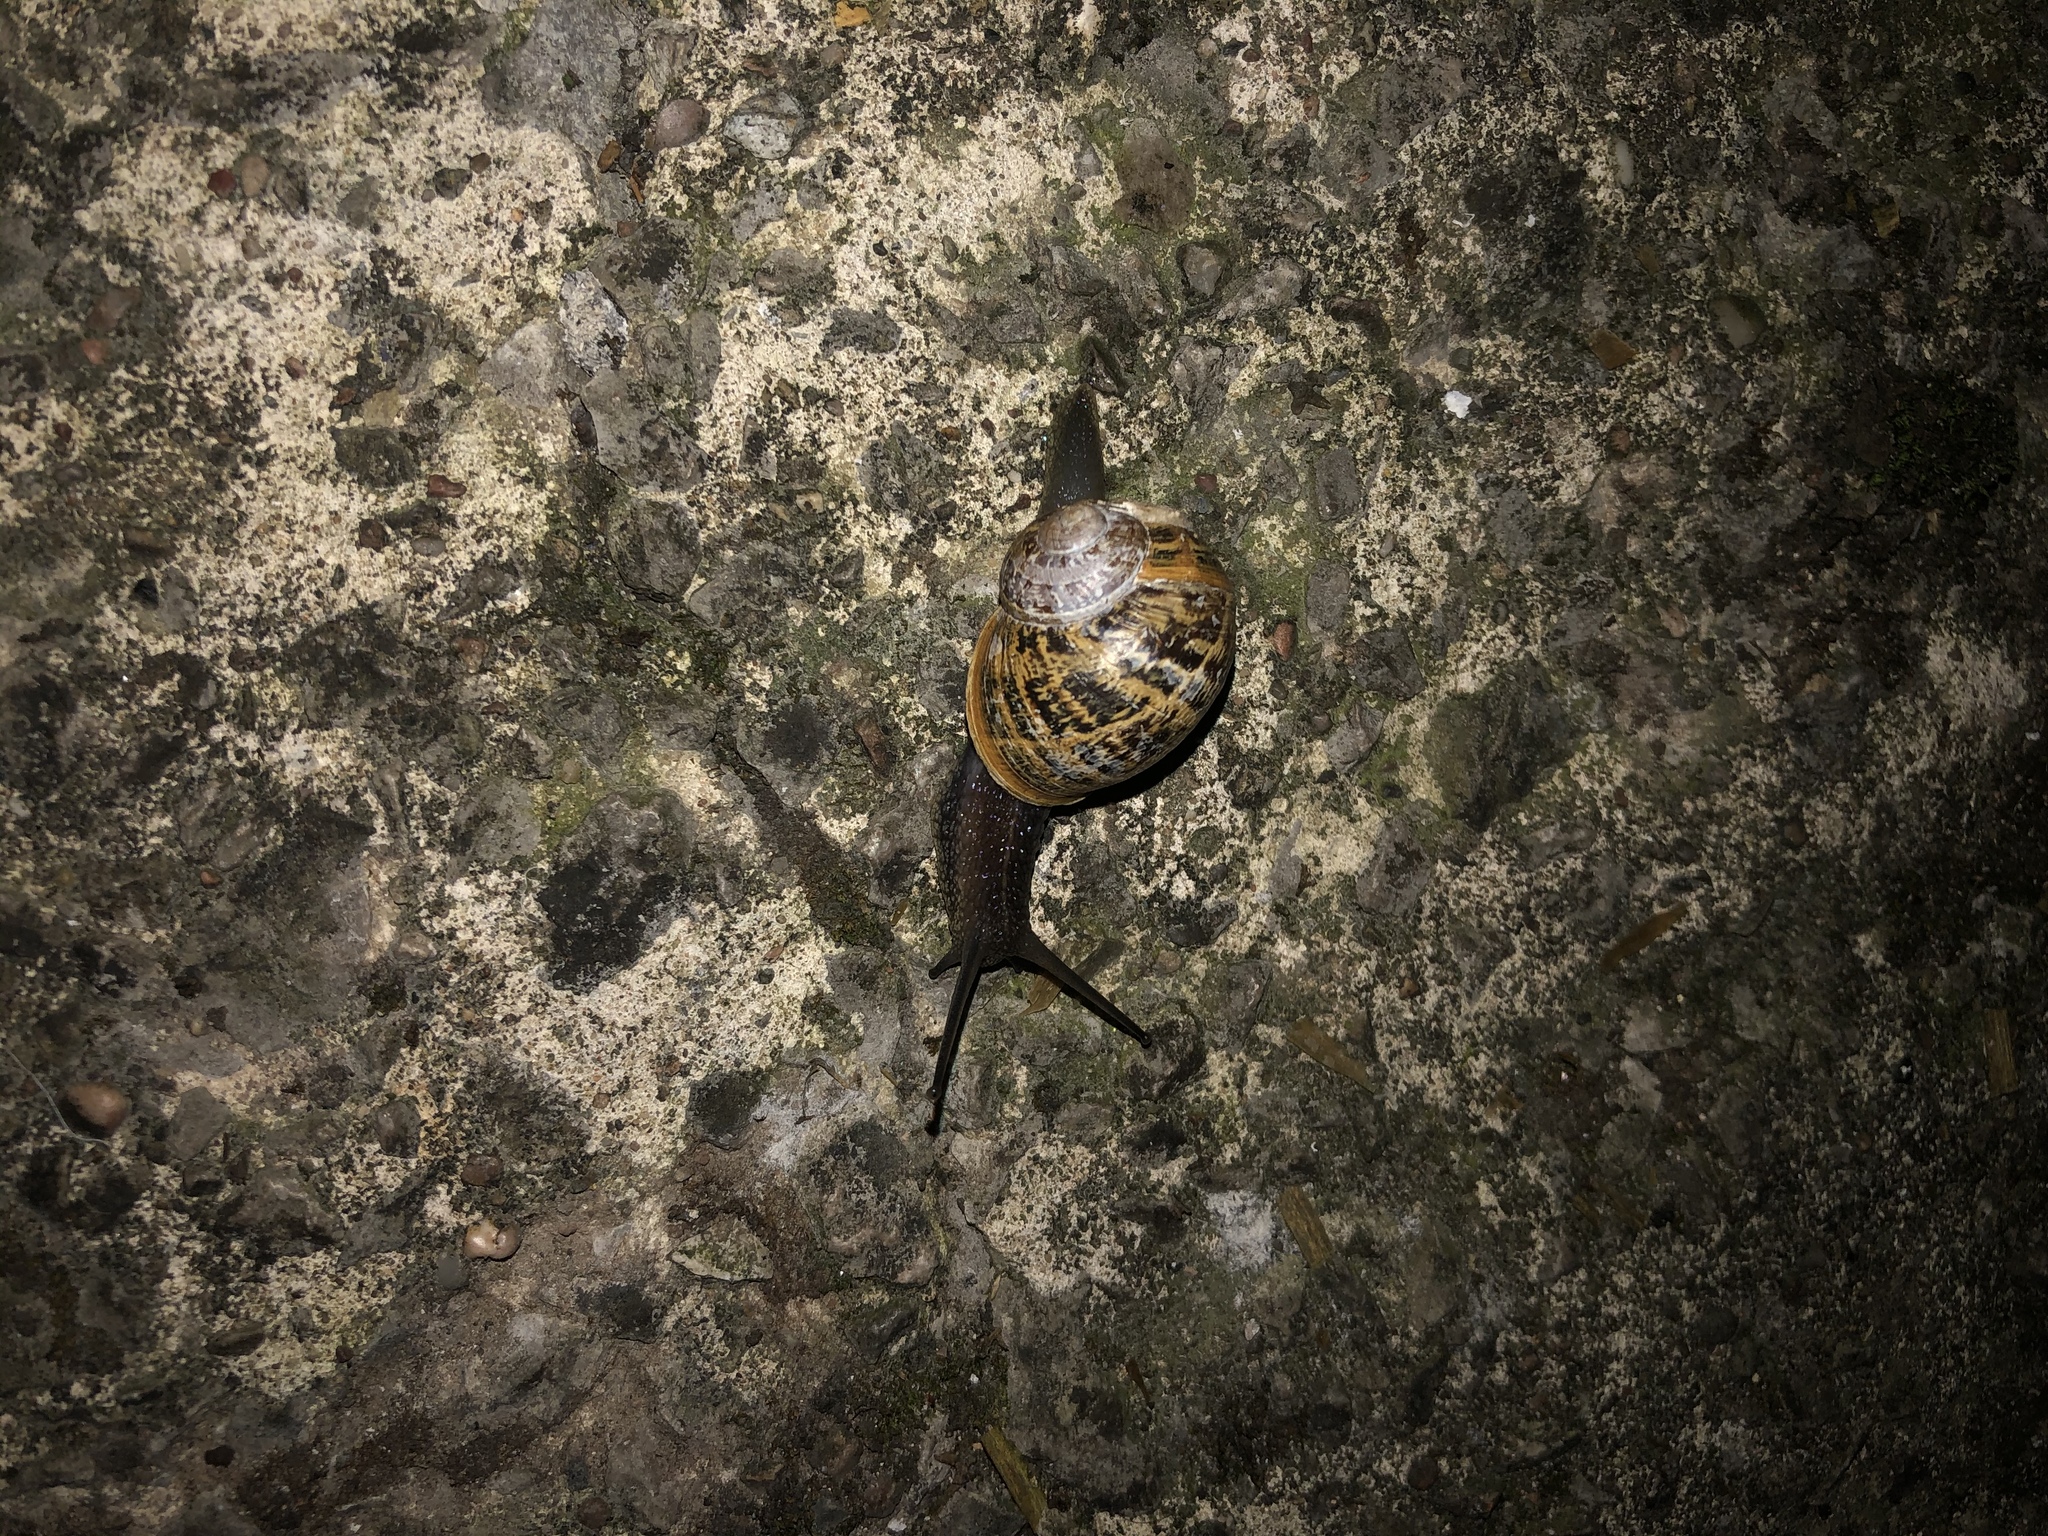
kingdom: Animalia
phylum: Mollusca
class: Gastropoda
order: Stylommatophora
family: Helicidae
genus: Arianta
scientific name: Arianta arbustorum
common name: Copse snail
